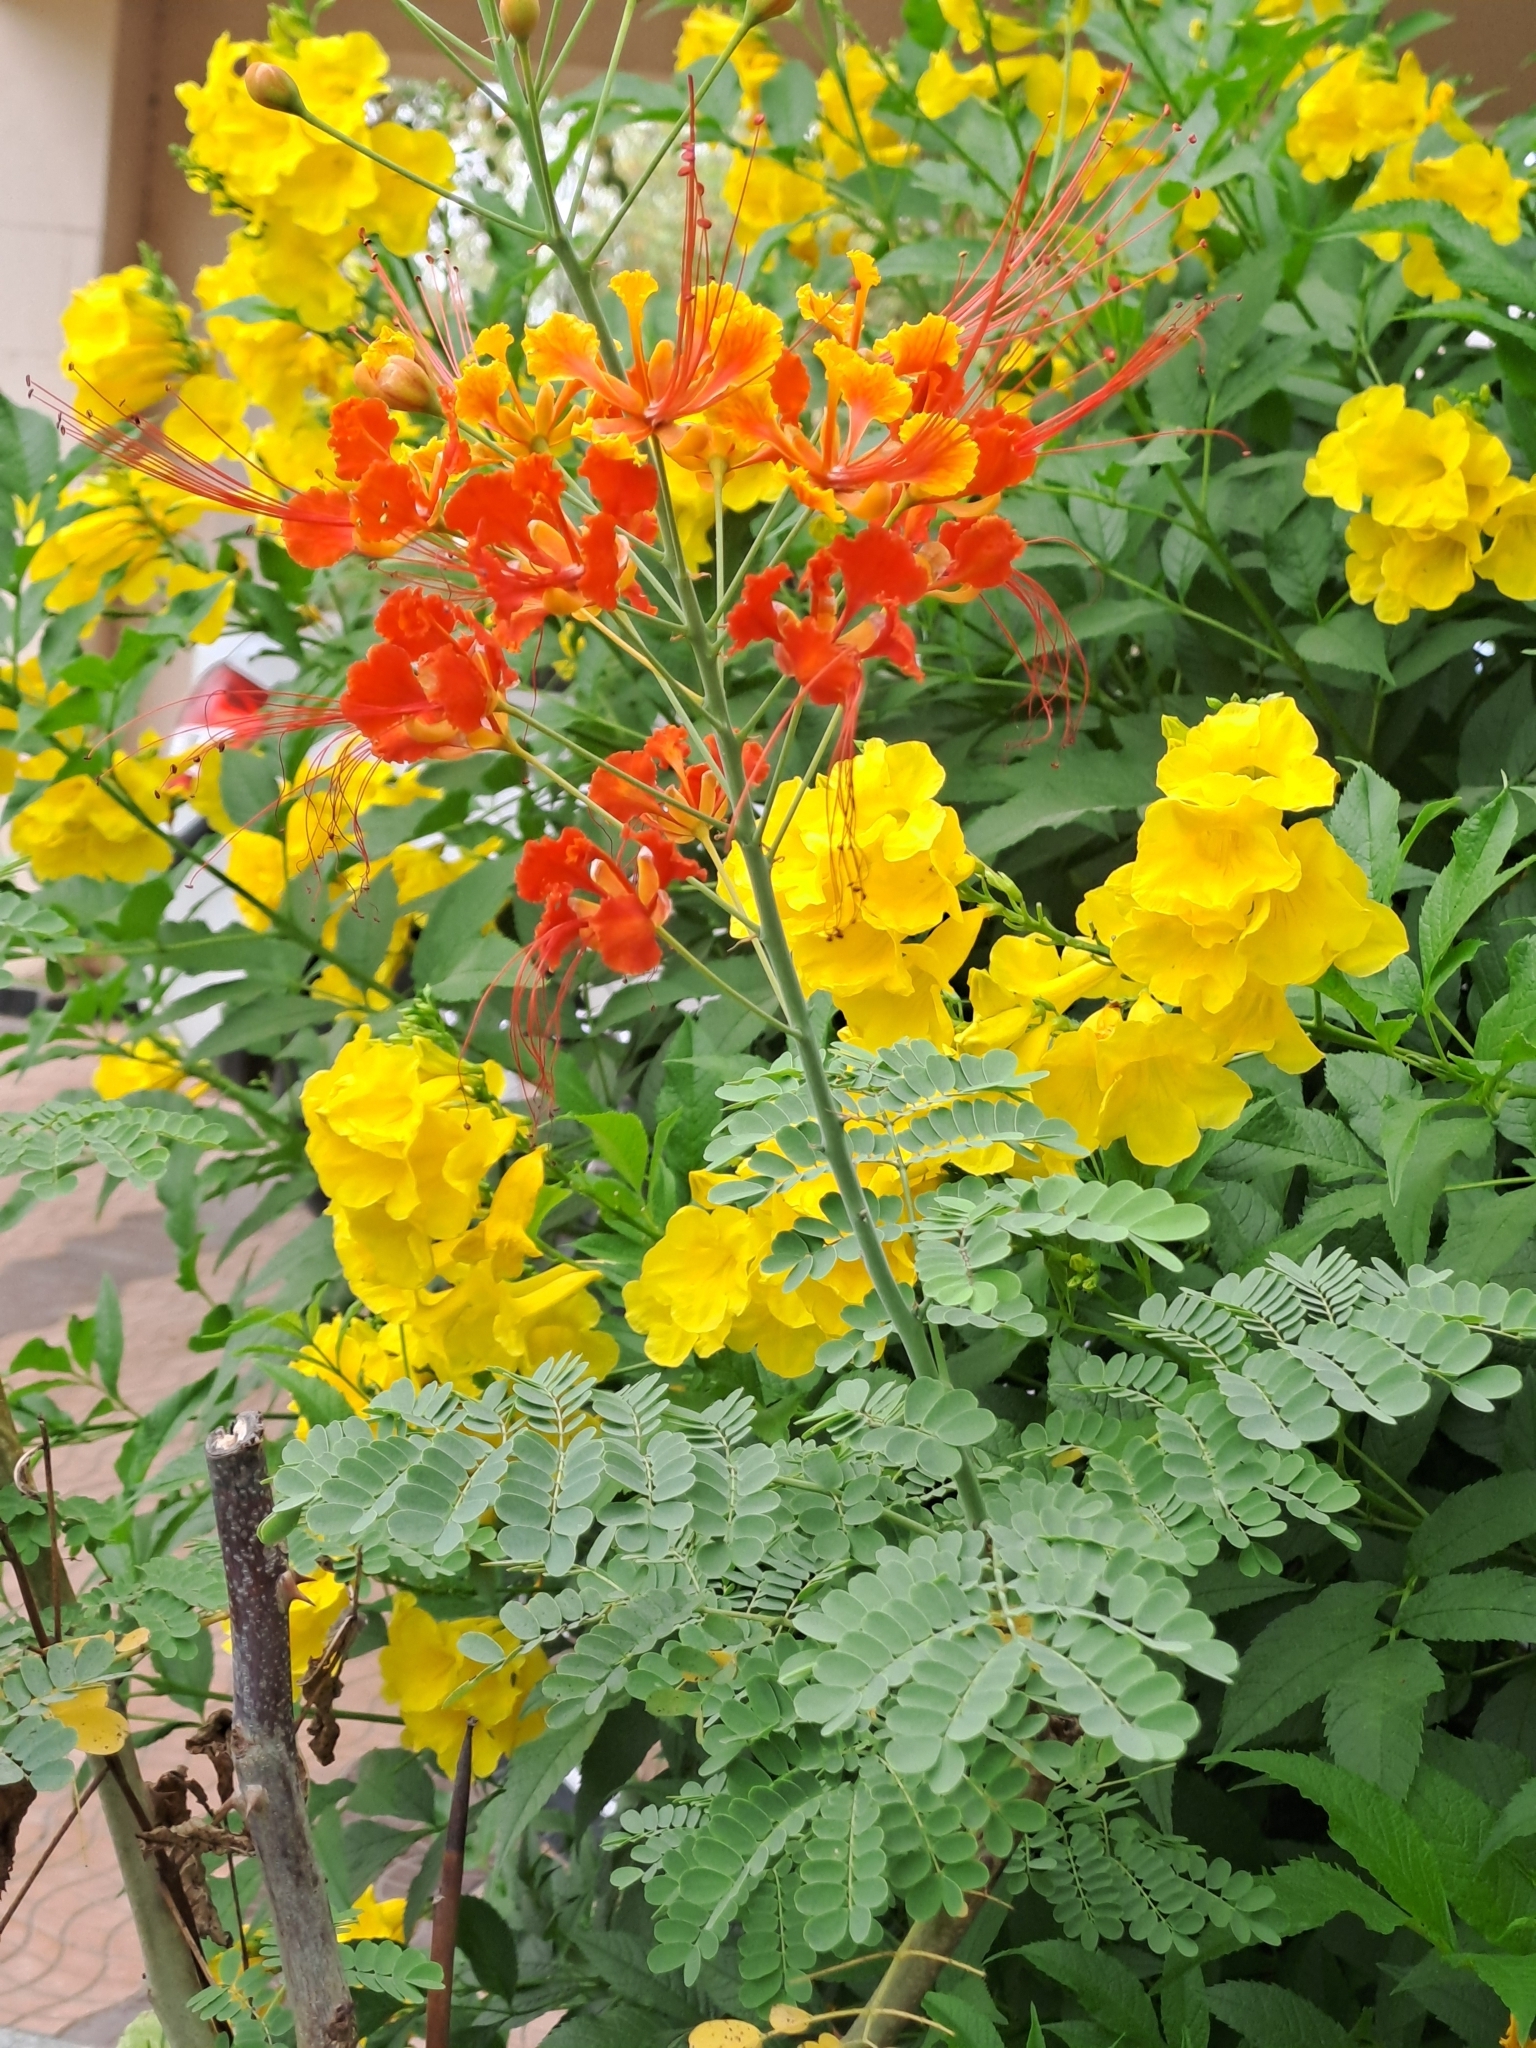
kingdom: Plantae
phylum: Tracheophyta
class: Magnoliopsida
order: Fabales
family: Fabaceae
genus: Caesalpinia
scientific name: Caesalpinia pulcherrima
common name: Pride-of-barbados
